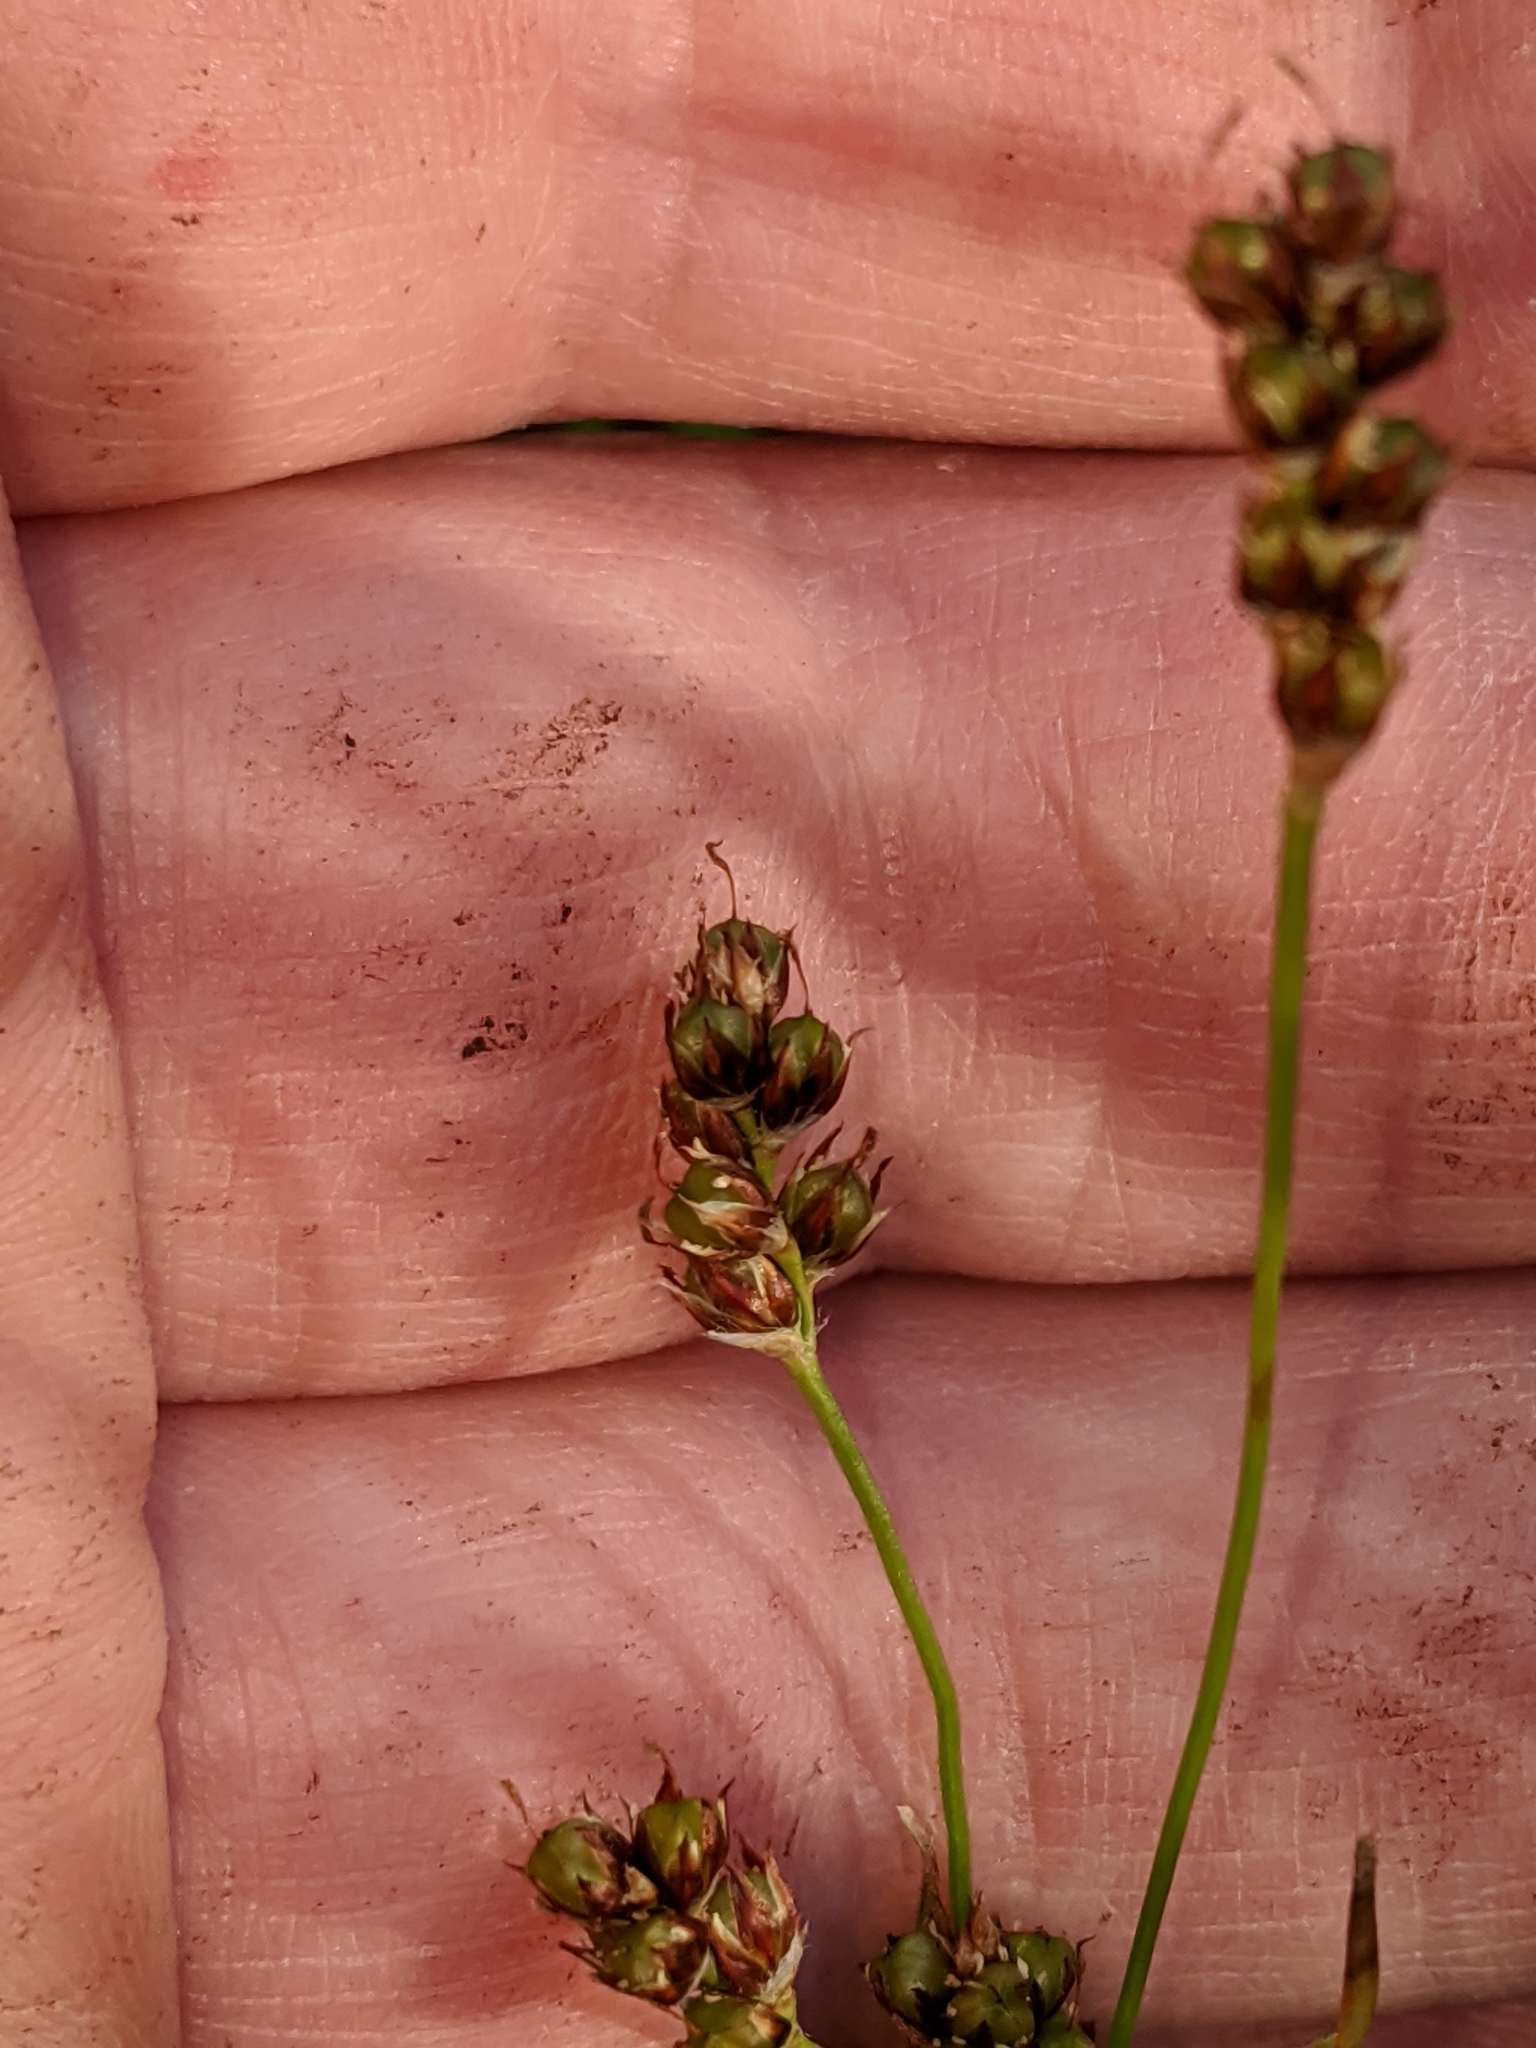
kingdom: Plantae
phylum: Tracheophyta
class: Liliopsida
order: Poales
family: Juncaceae
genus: Luzula
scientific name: Luzula multiflora
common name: Heath wood-rush
